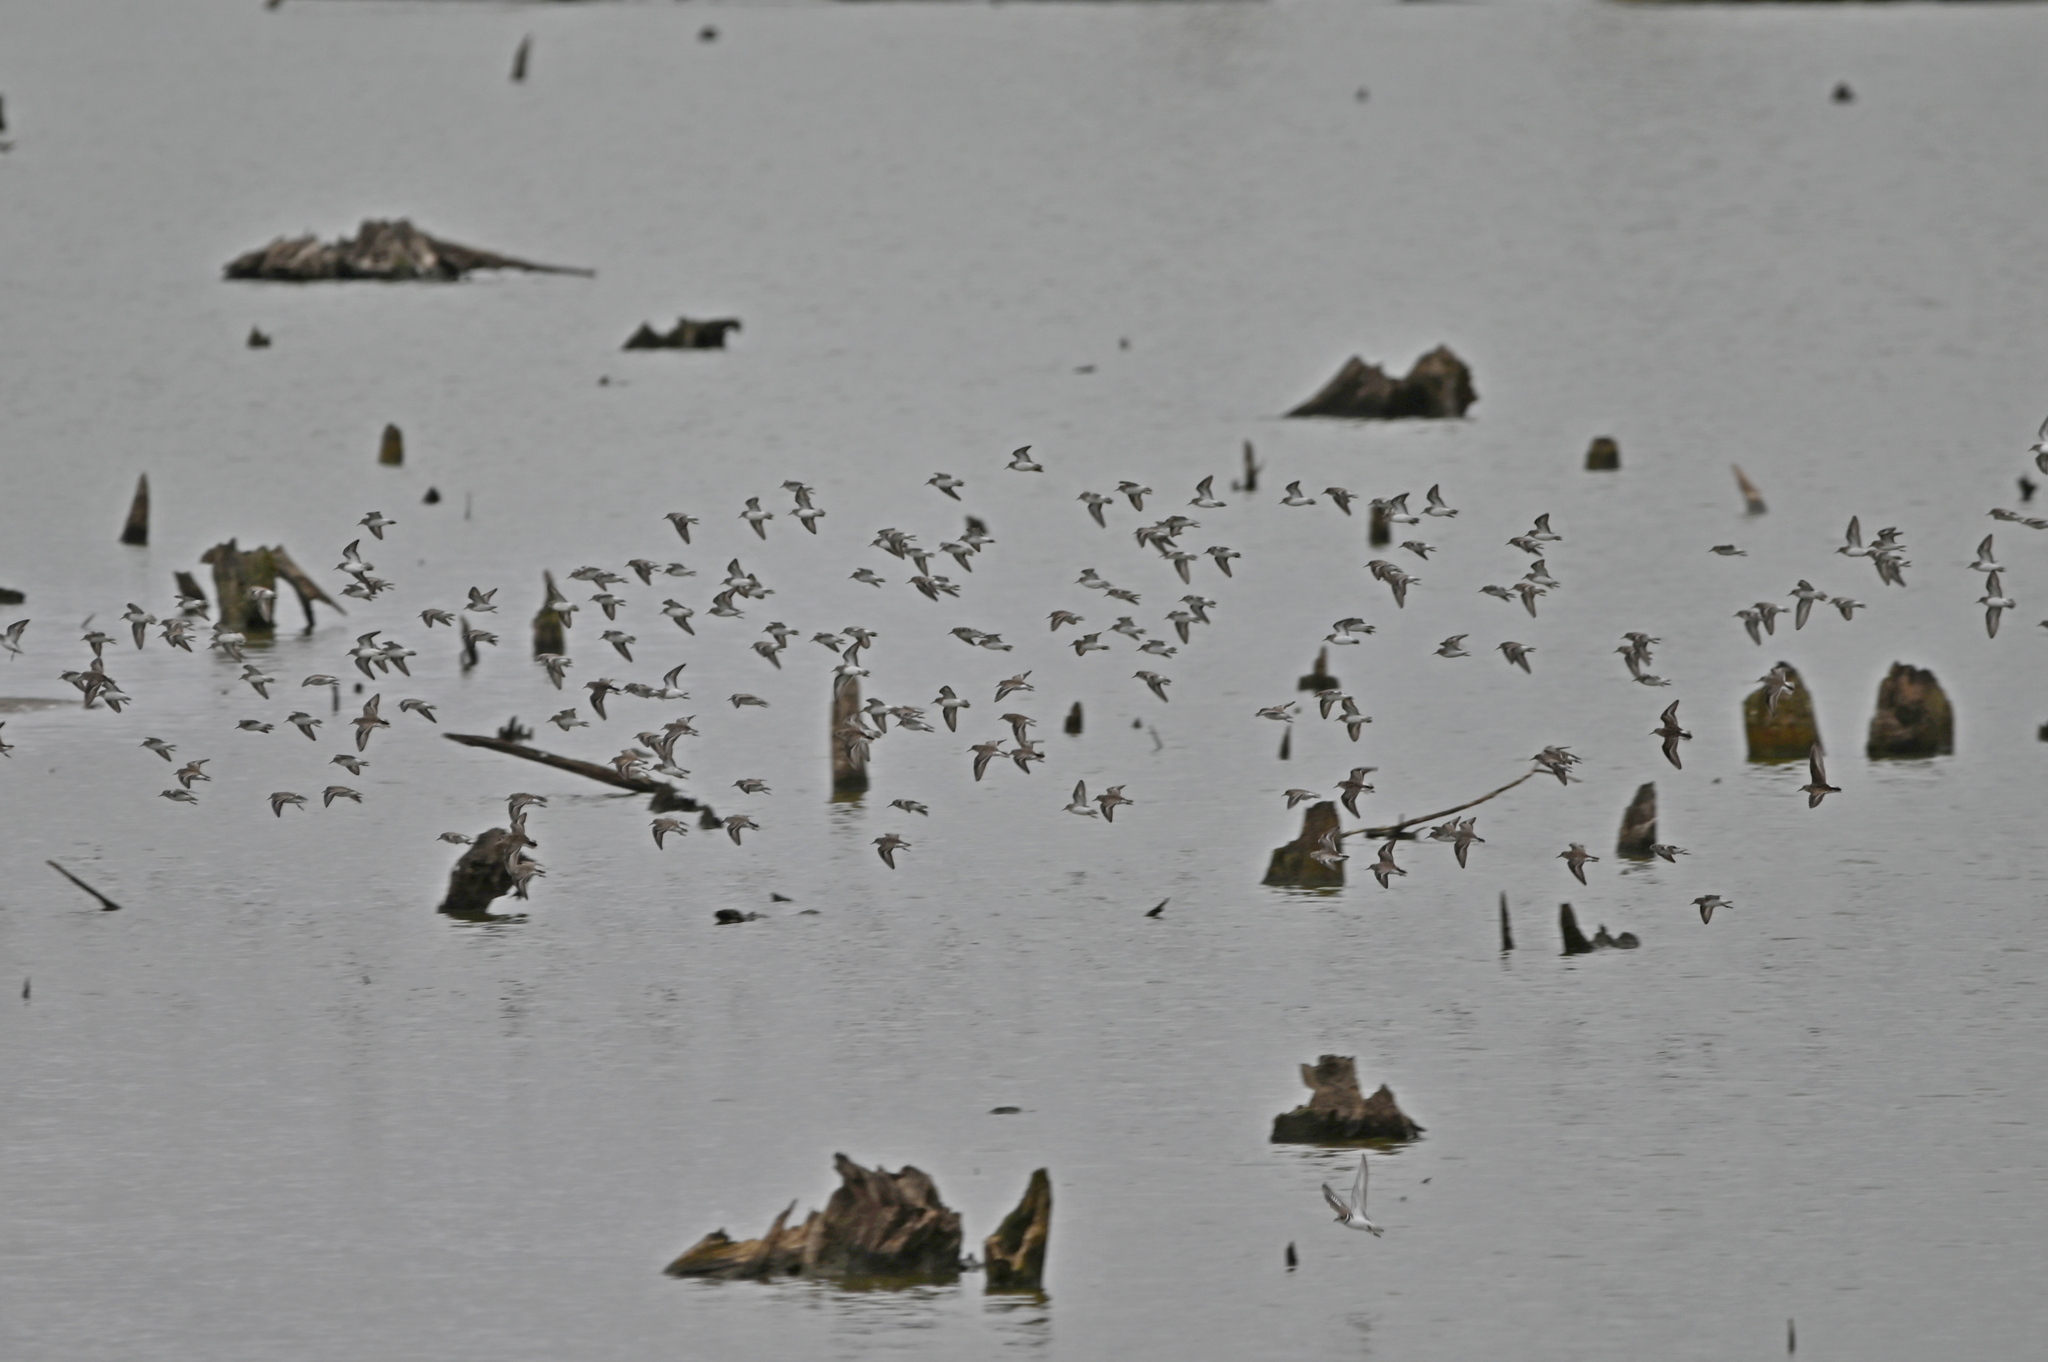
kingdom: Animalia
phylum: Chordata
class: Aves
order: Charadriiformes
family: Scolopacidae
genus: Calidris
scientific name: Calidris minutilla
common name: Least sandpiper
